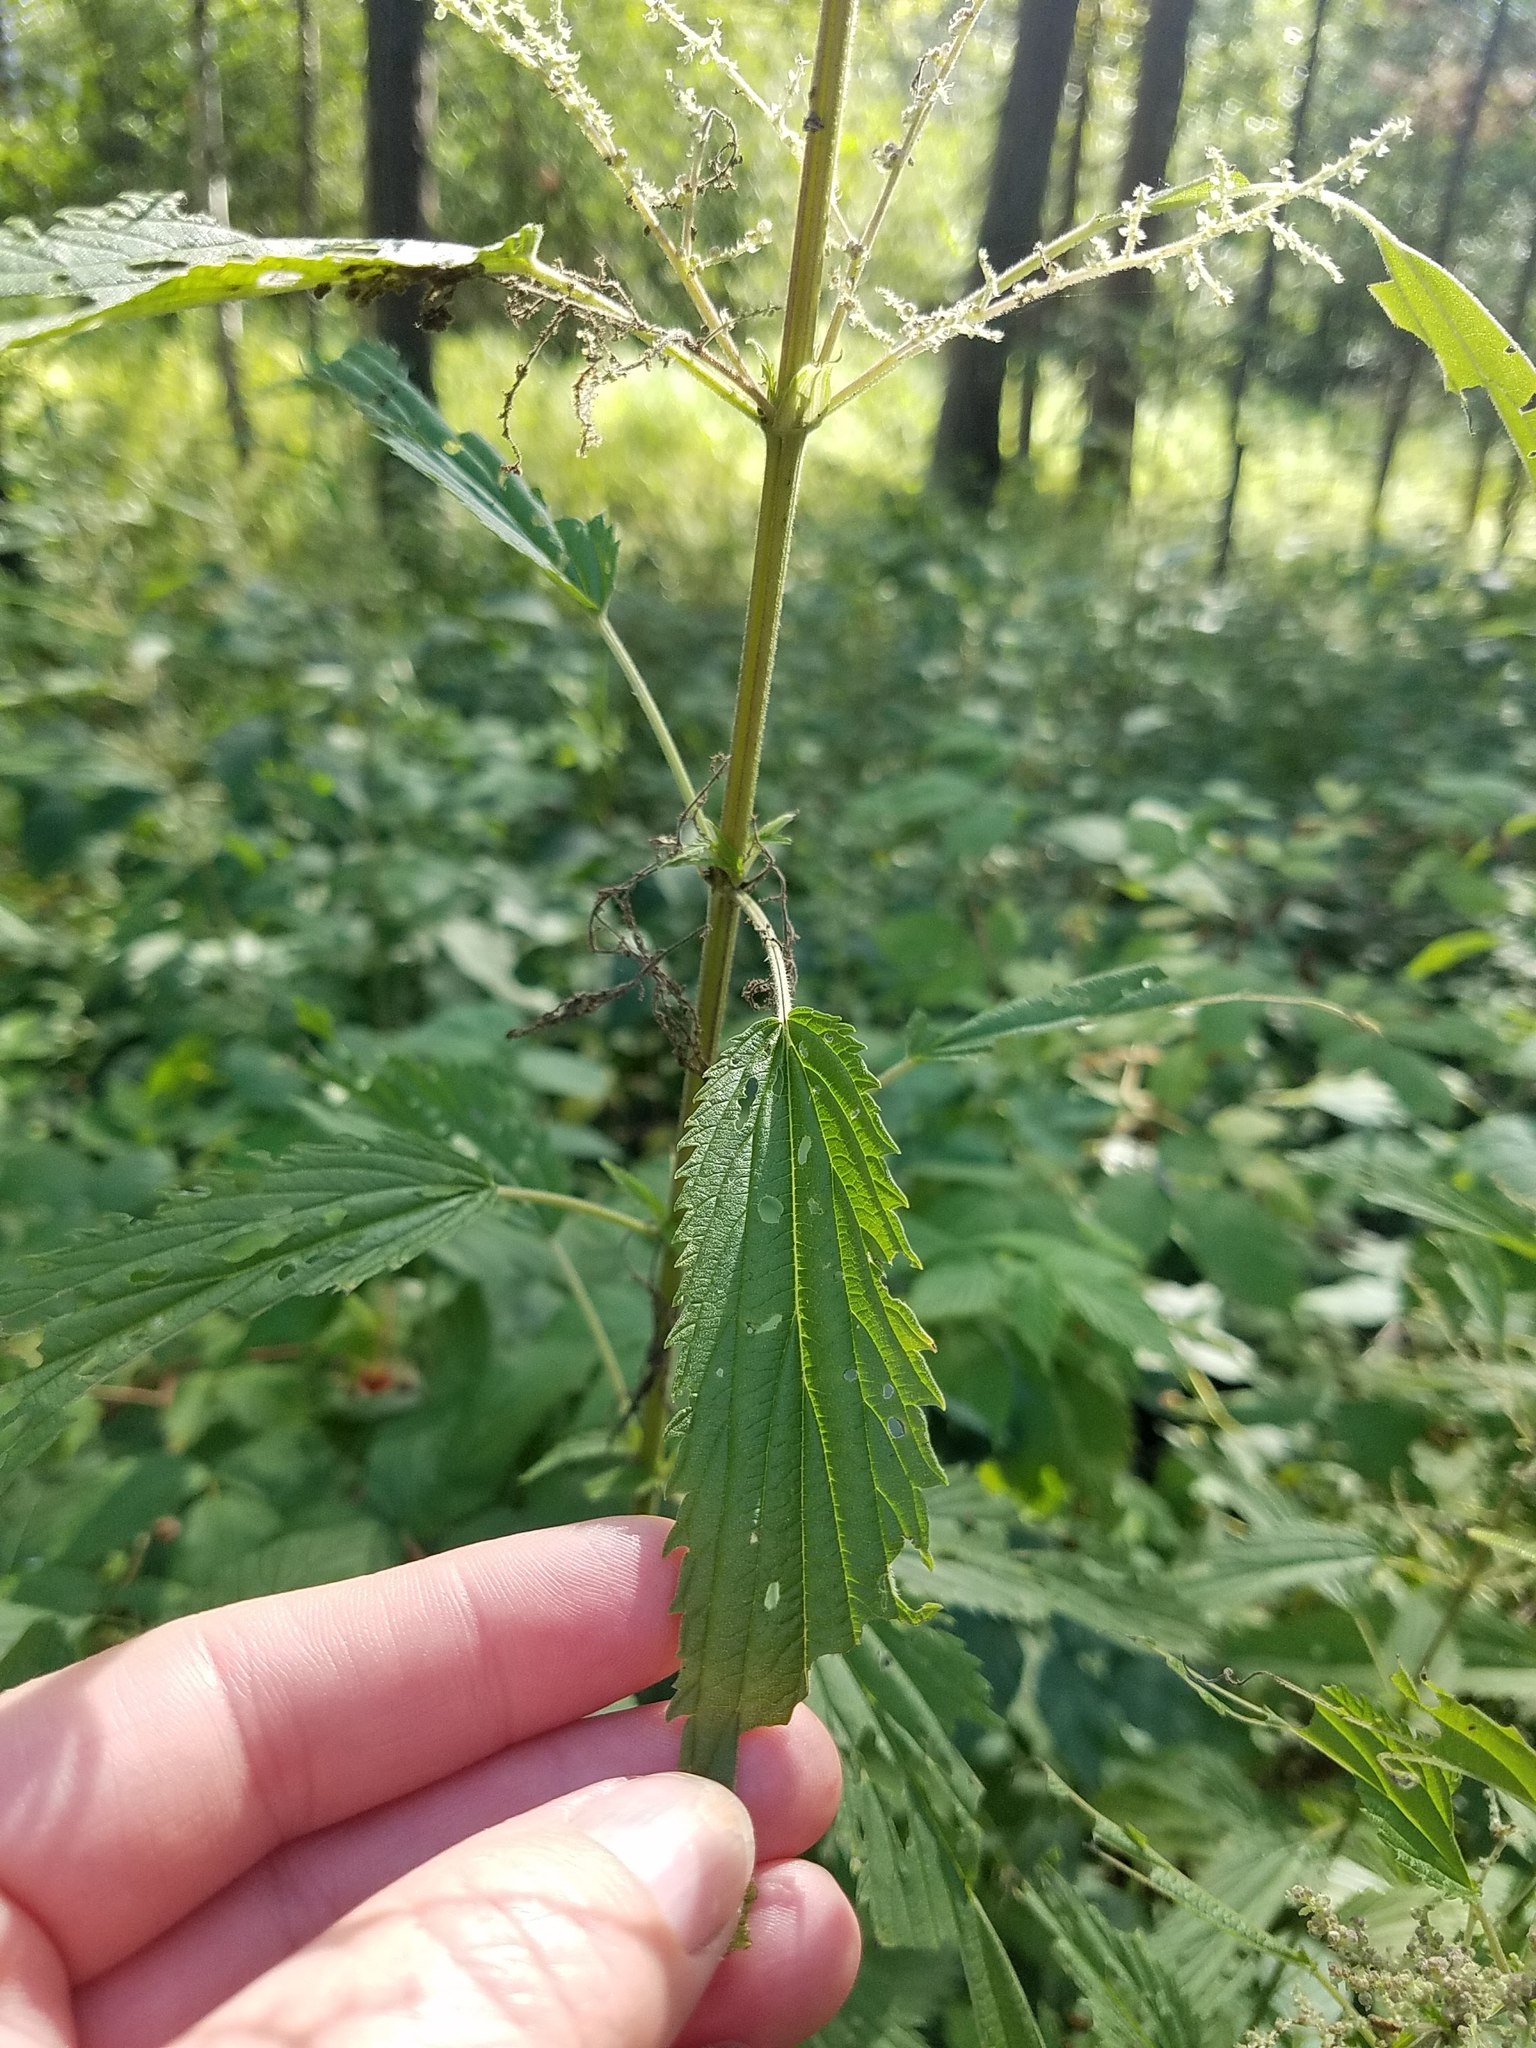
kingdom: Plantae
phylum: Tracheophyta
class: Magnoliopsida
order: Rosales
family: Urticaceae
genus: Urtica
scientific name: Urtica dioica
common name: Common nettle
